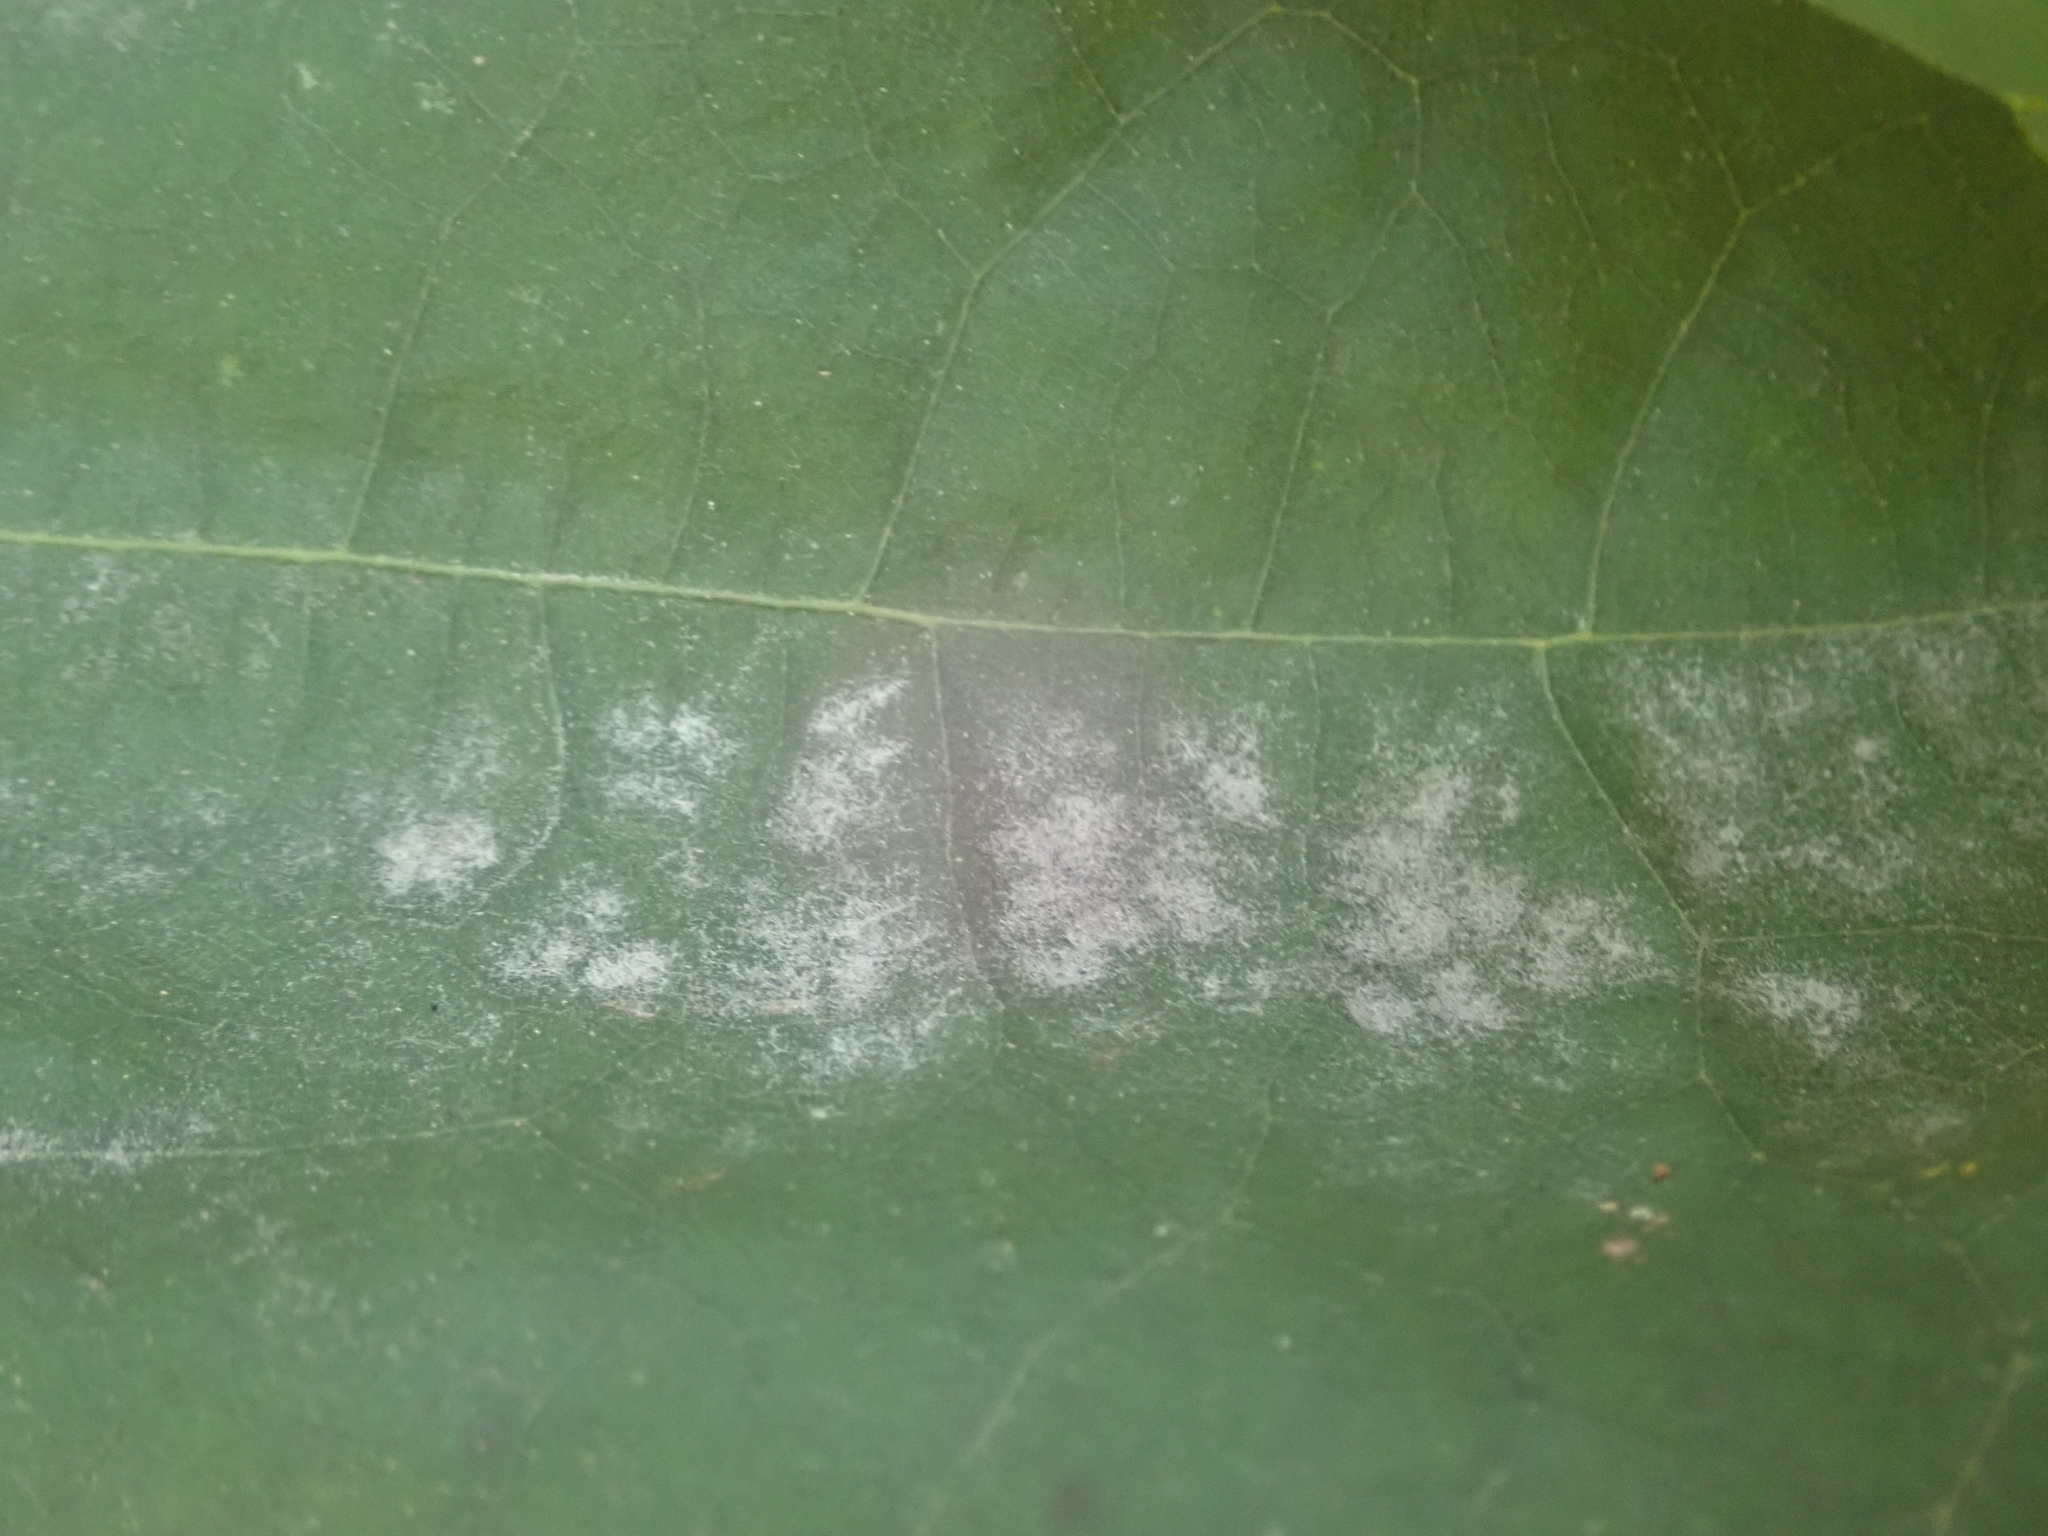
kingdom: Fungi
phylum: Ascomycota
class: Leotiomycetes
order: Helotiales
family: Erysiphaceae
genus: Erysiphe
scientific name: Erysiphe
